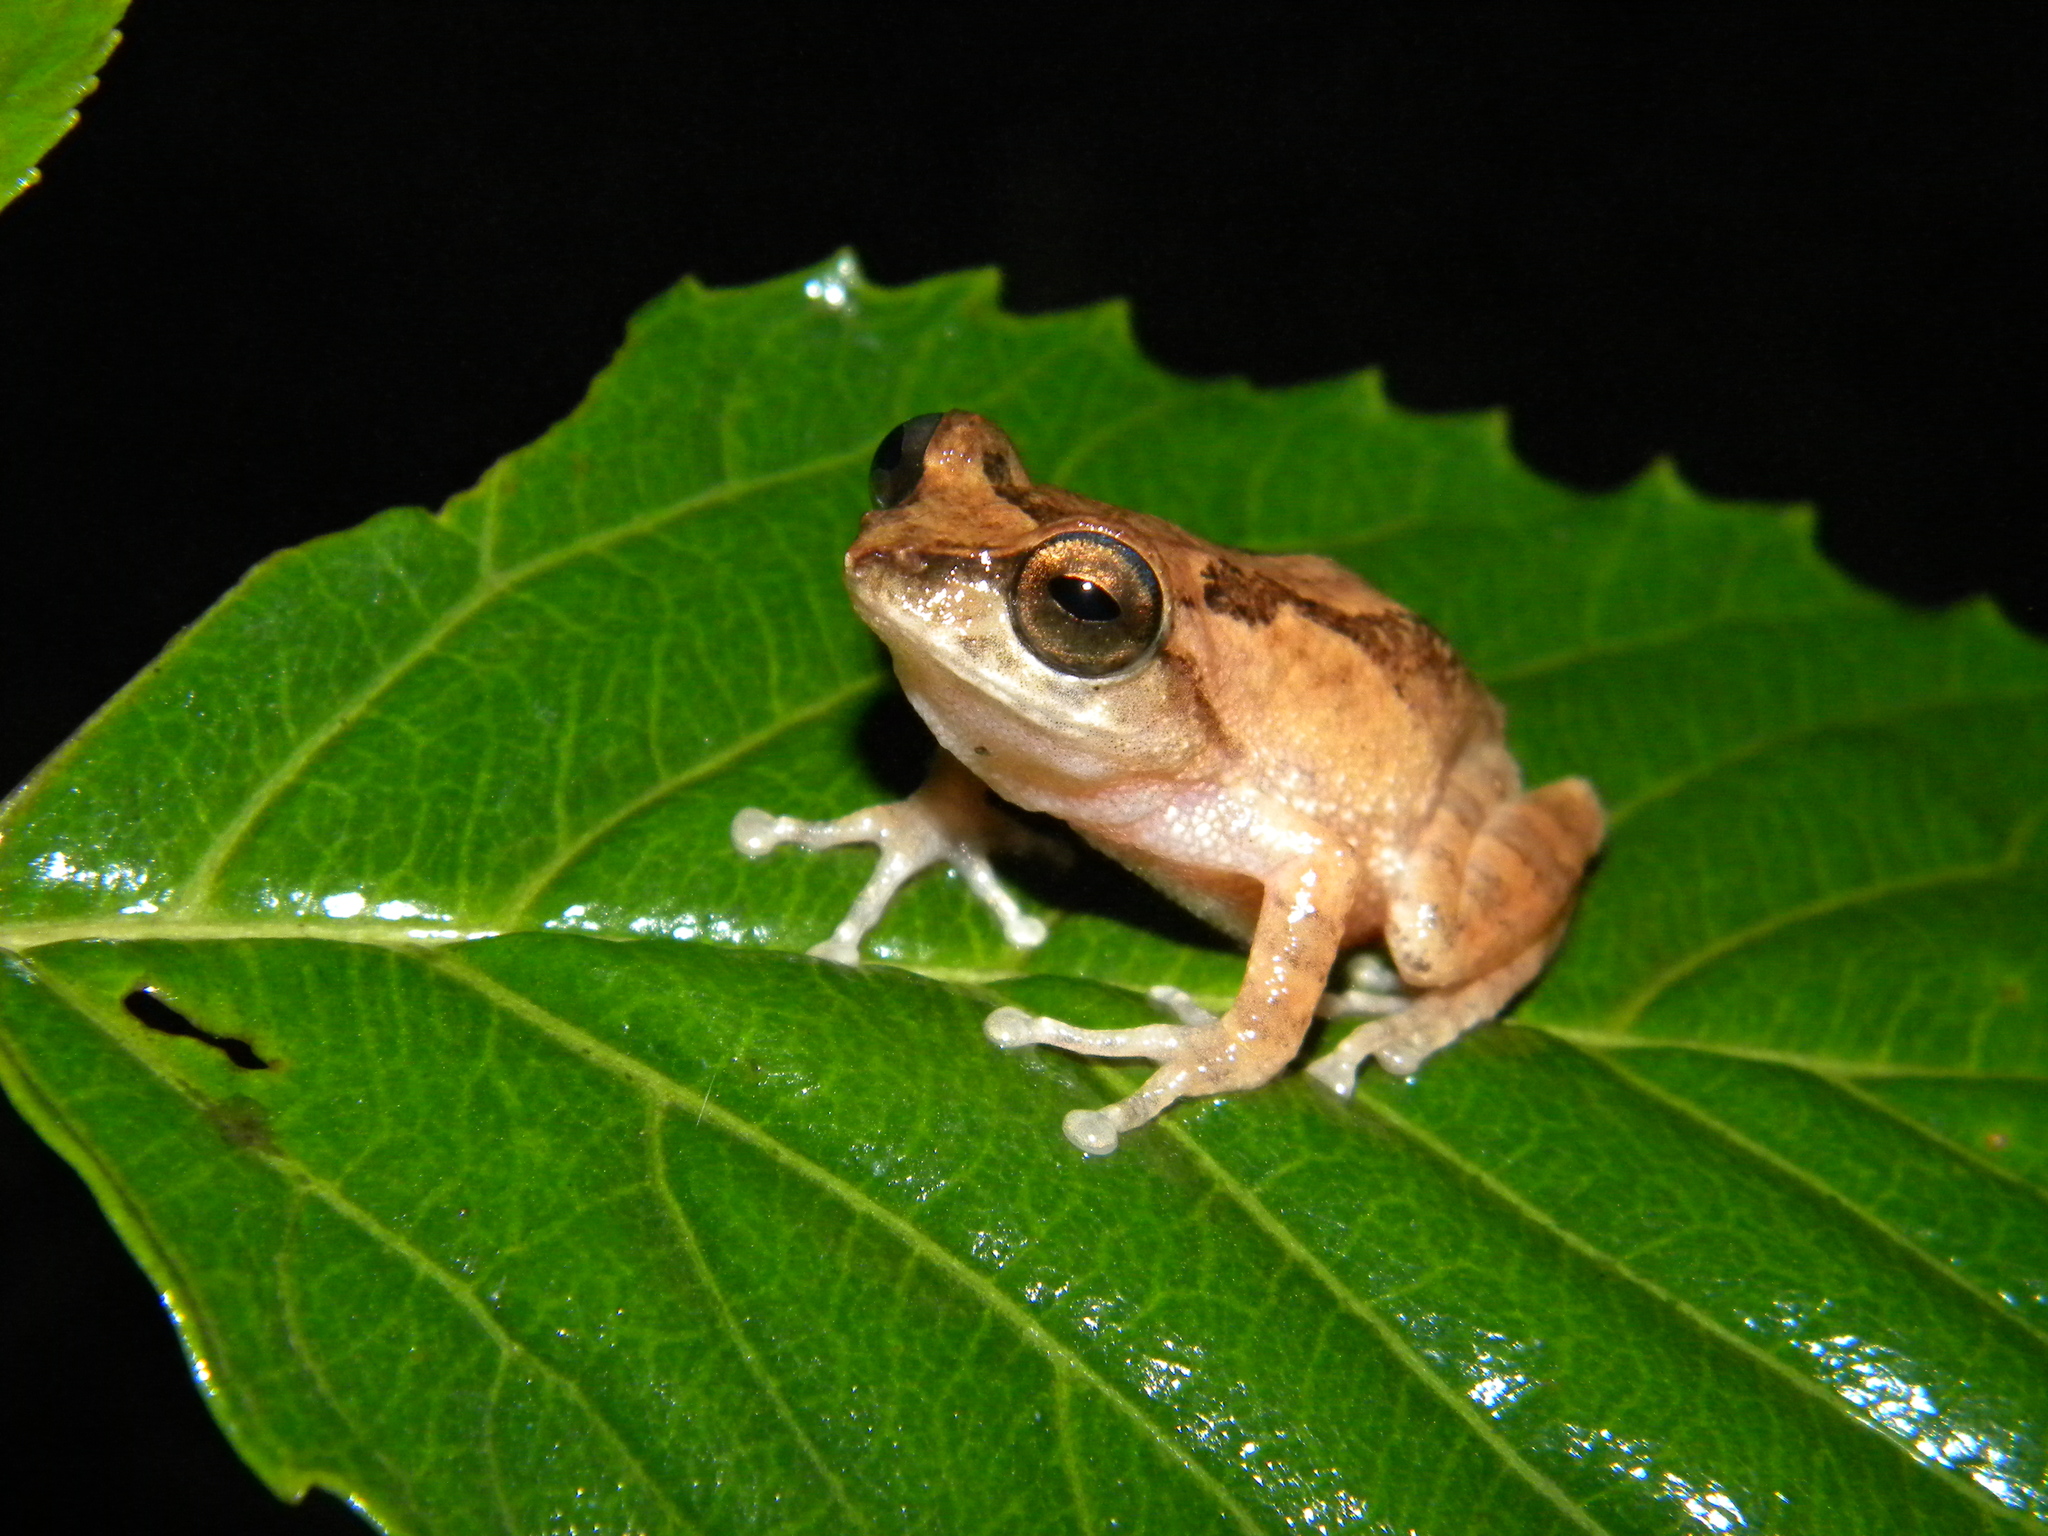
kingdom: Animalia
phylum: Chordata
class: Amphibia
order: Anura
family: Rhacophoridae
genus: Raorchestes
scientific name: Raorchestes johnceei
